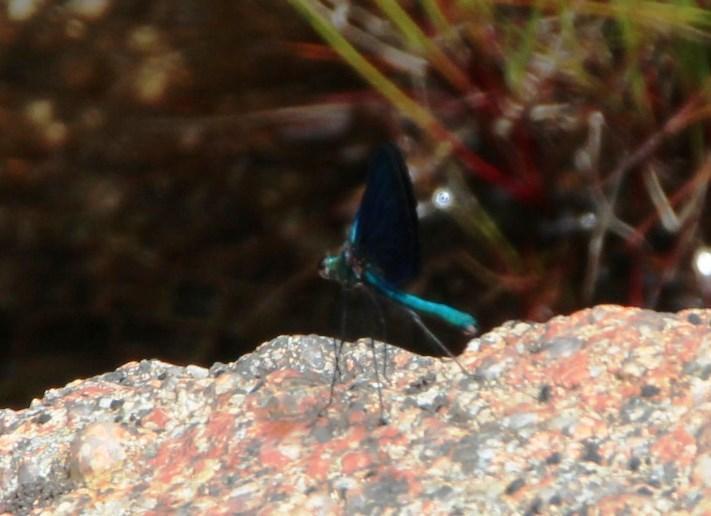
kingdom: Animalia
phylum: Arthropoda
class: Insecta
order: Odonata
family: Calopterygidae
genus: Calopteryx
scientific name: Calopteryx virgo
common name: Beautiful demoiselle
